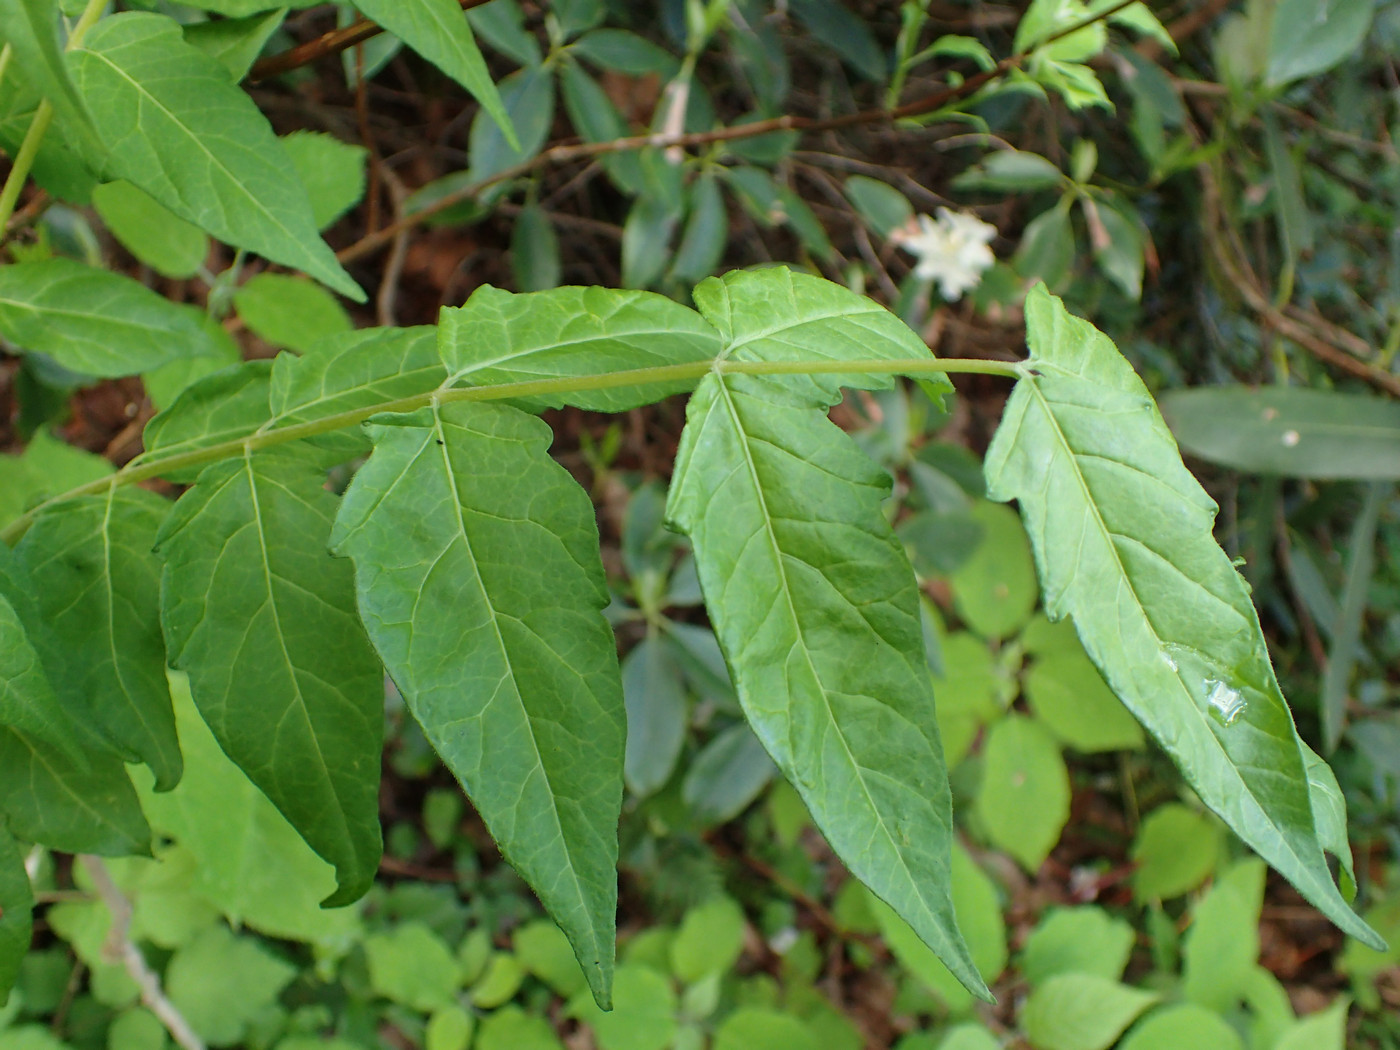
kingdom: Plantae
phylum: Tracheophyta
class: Magnoliopsida
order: Sapindales
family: Simaroubaceae
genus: Ailanthus
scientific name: Ailanthus altissima
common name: Tree-of-heaven
